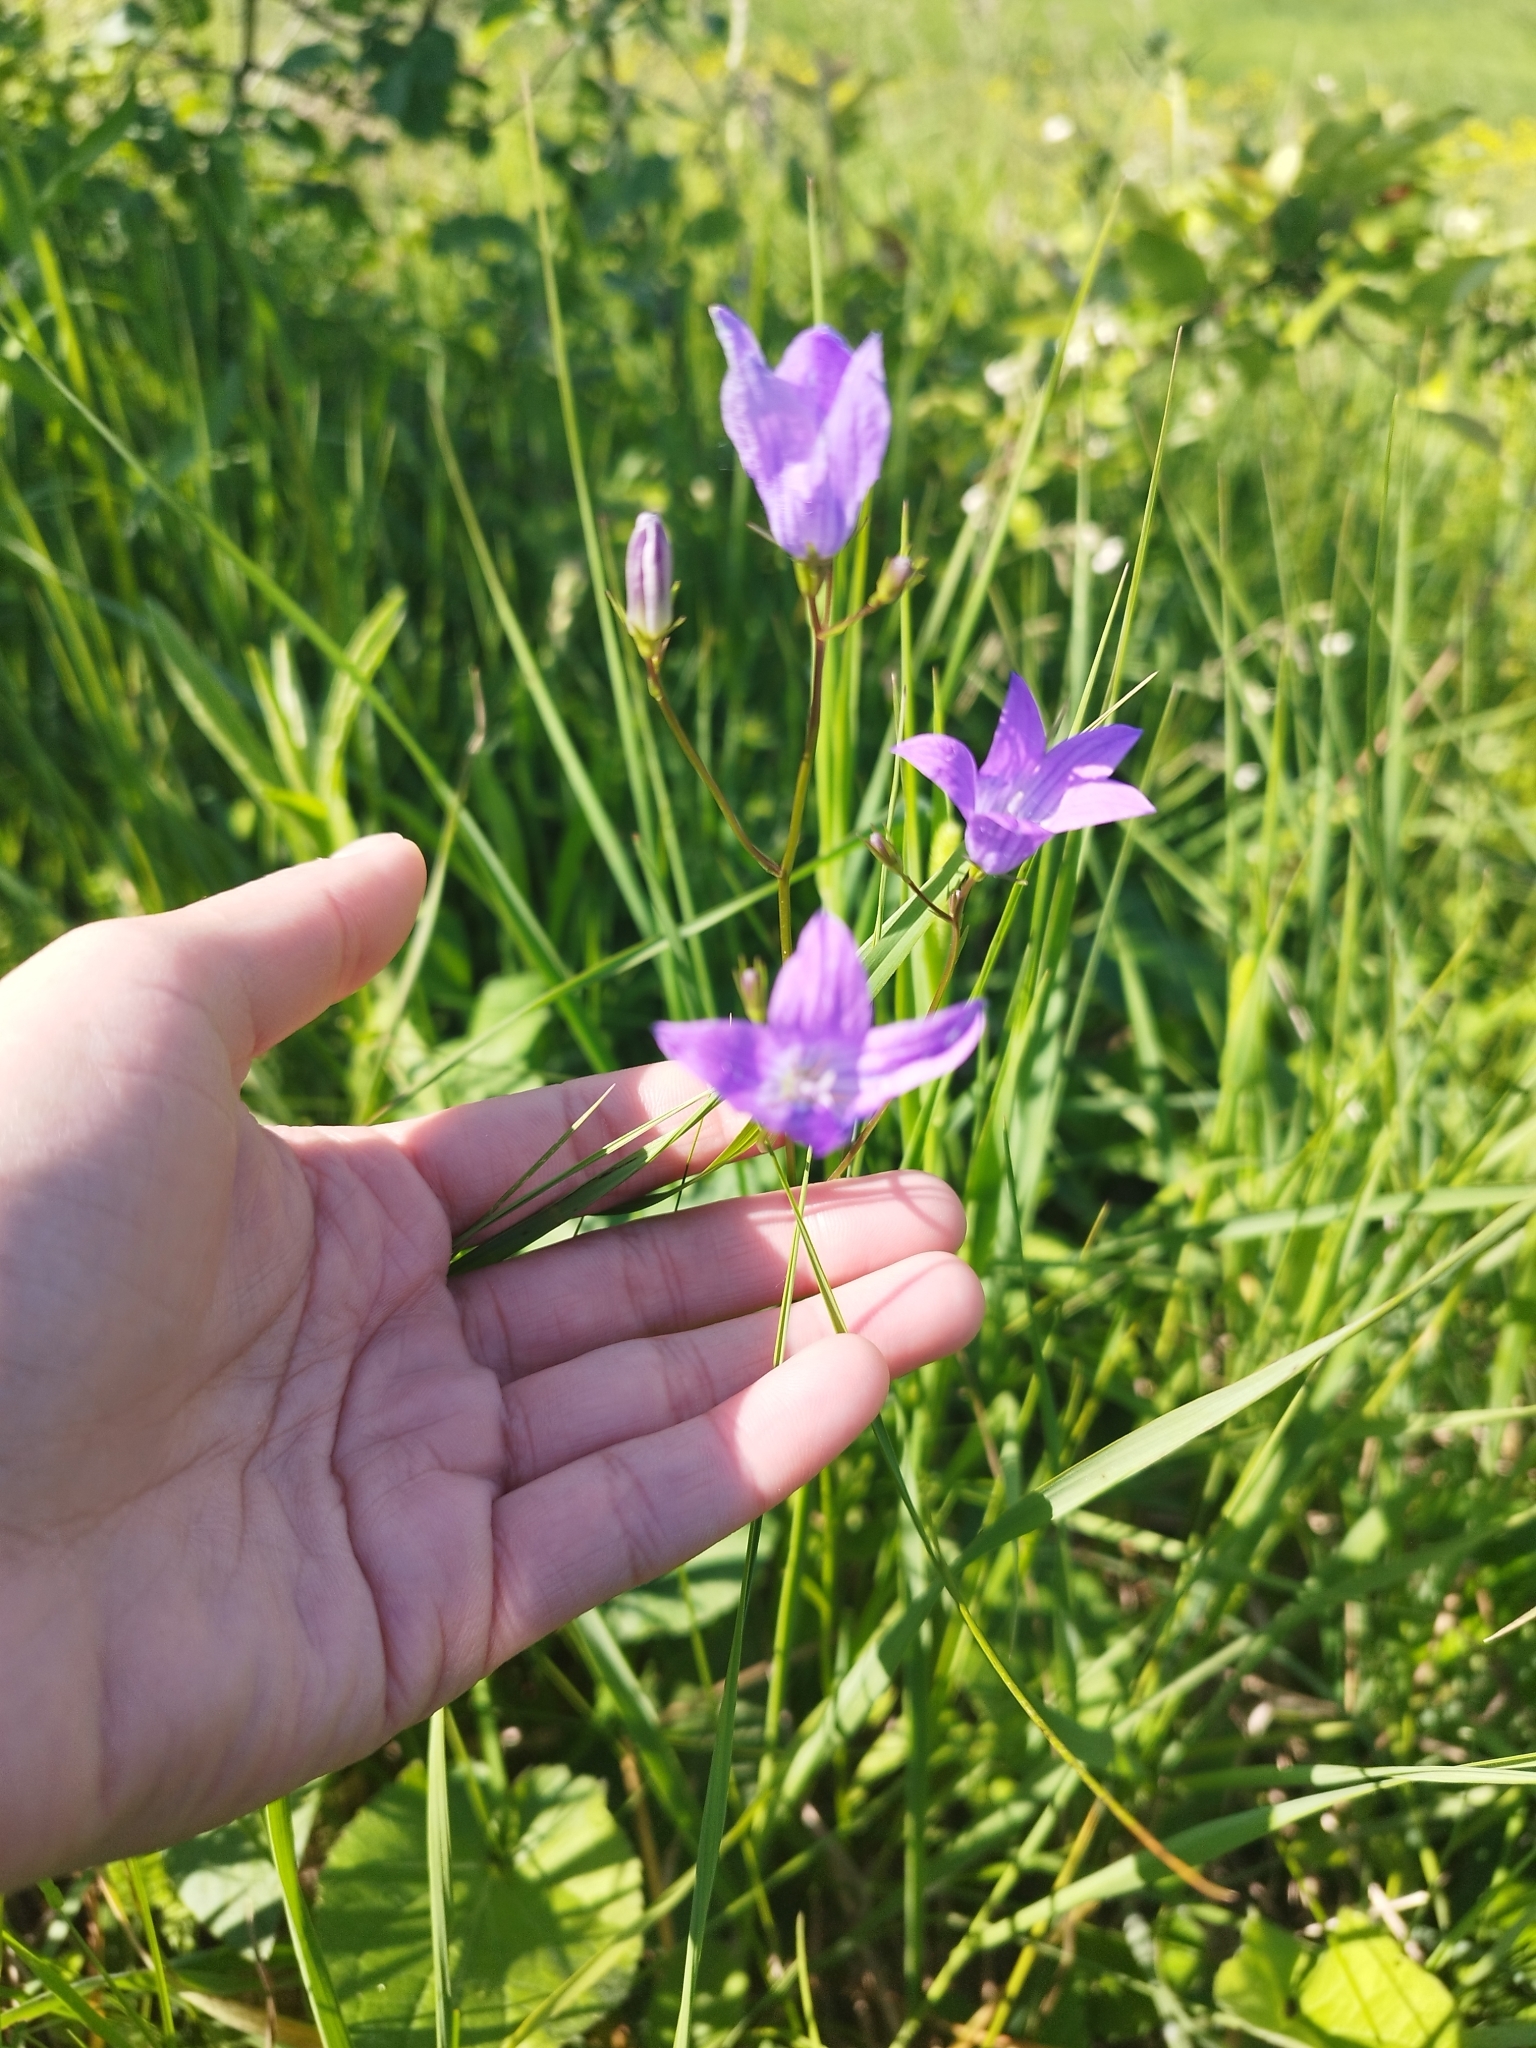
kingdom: Plantae
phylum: Tracheophyta
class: Magnoliopsida
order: Asterales
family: Campanulaceae
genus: Campanula
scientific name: Campanula patula
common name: Spreading bellflower
